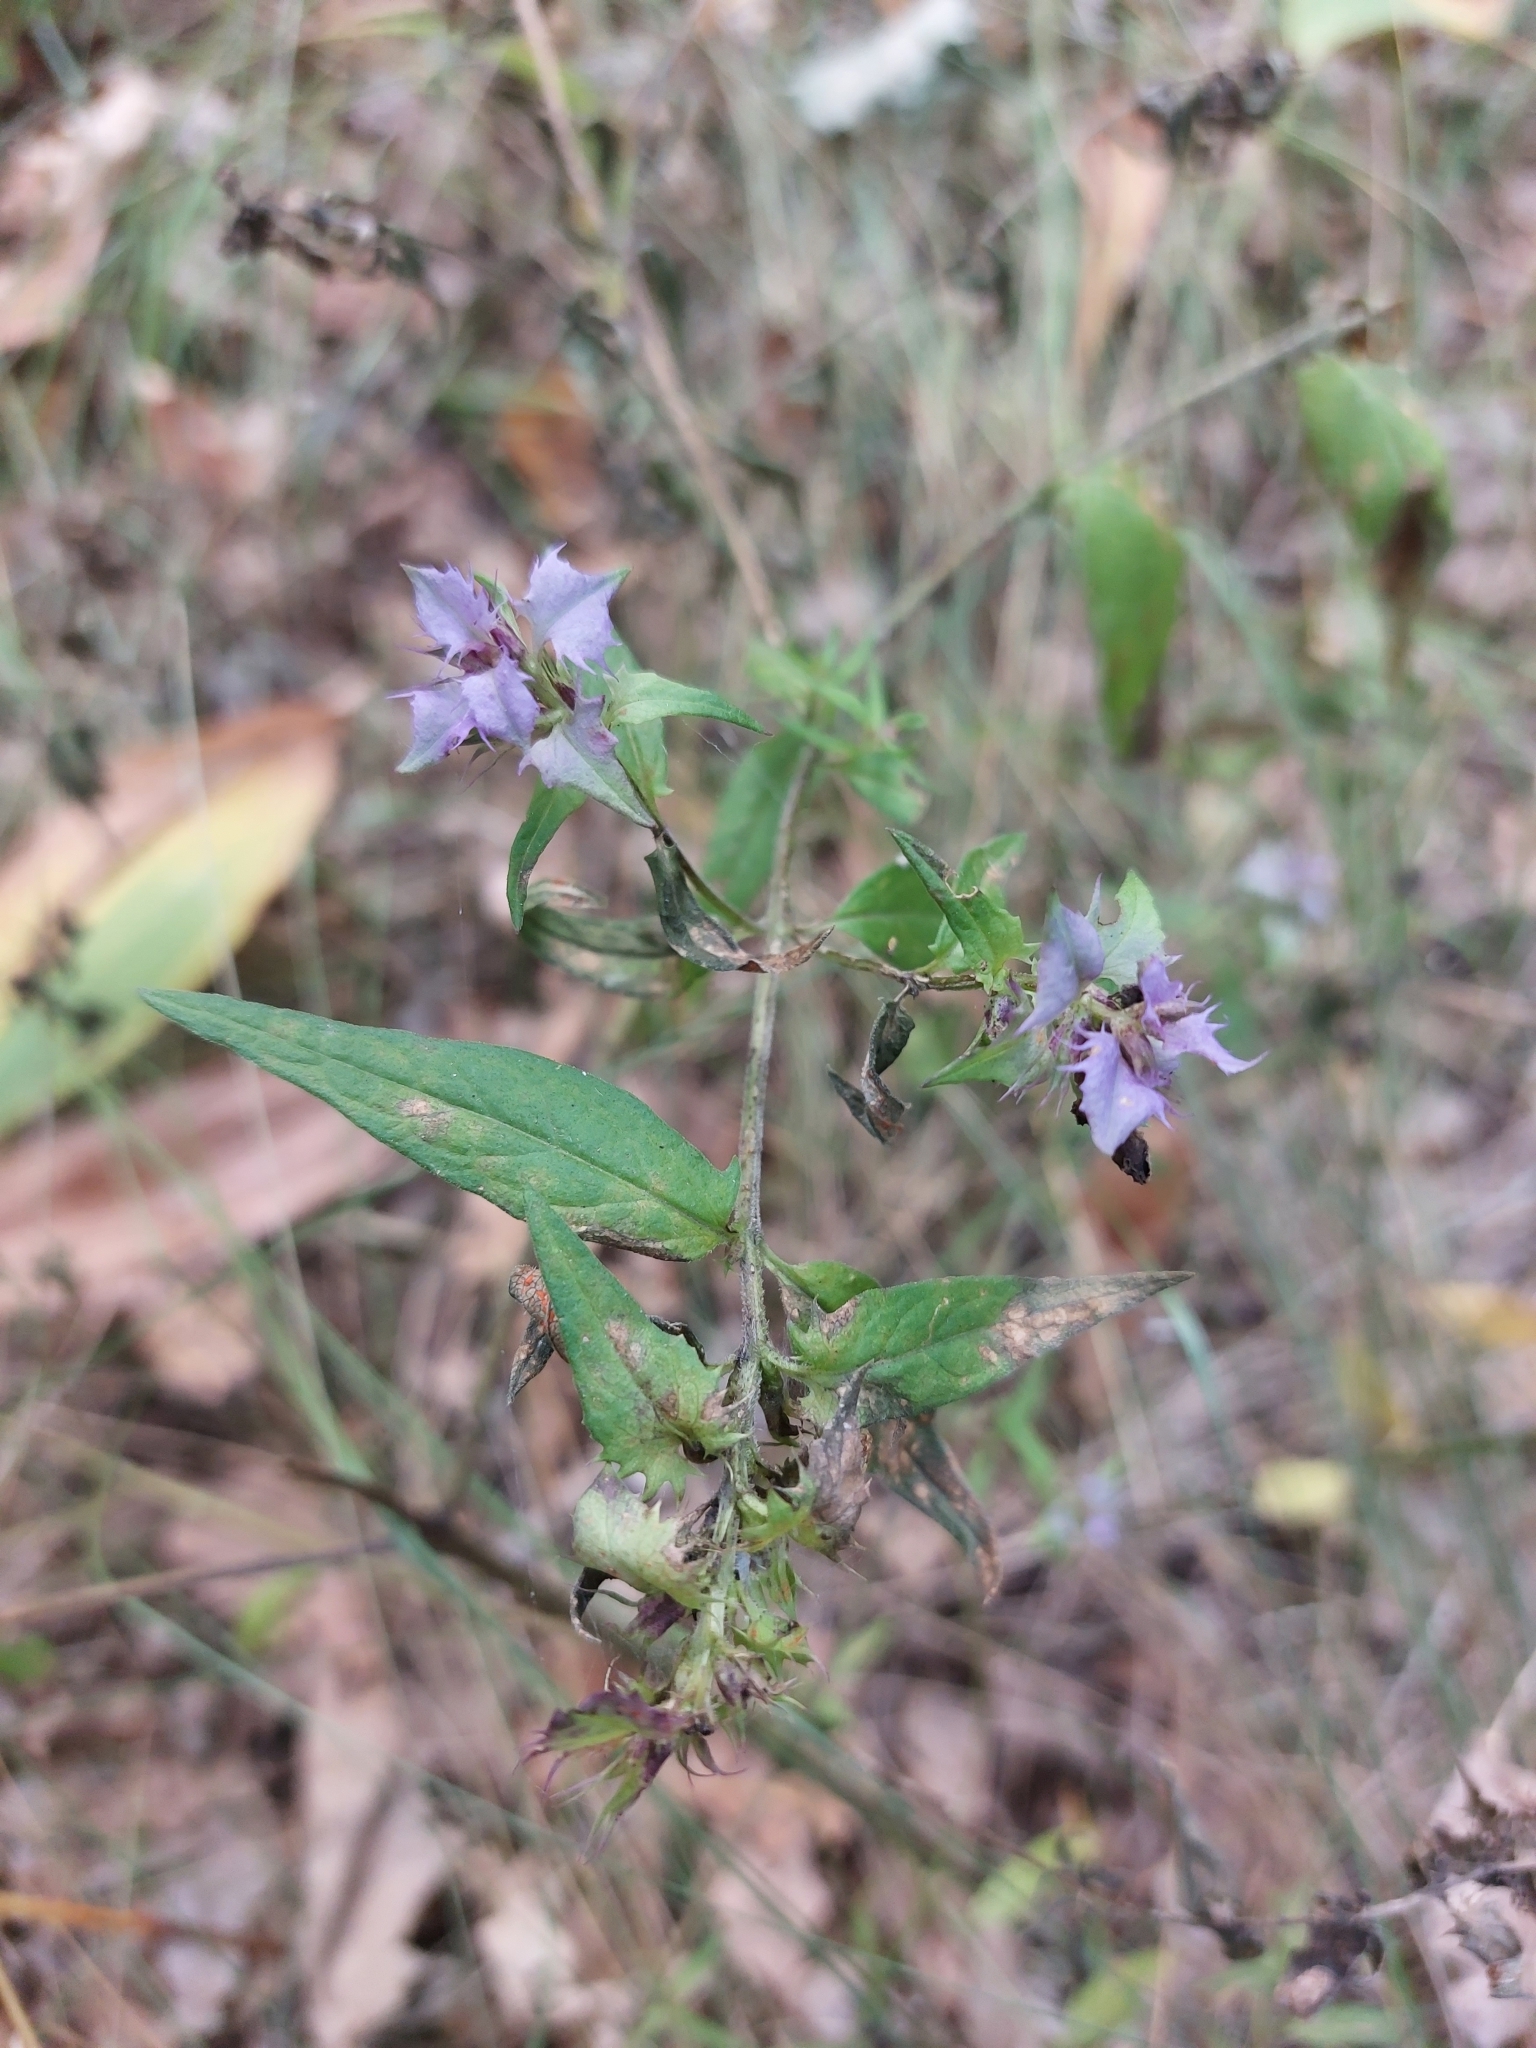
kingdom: Plantae
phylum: Tracheophyta
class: Magnoliopsida
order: Lamiales
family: Orobanchaceae
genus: Melampyrum
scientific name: Melampyrum nemorosum
